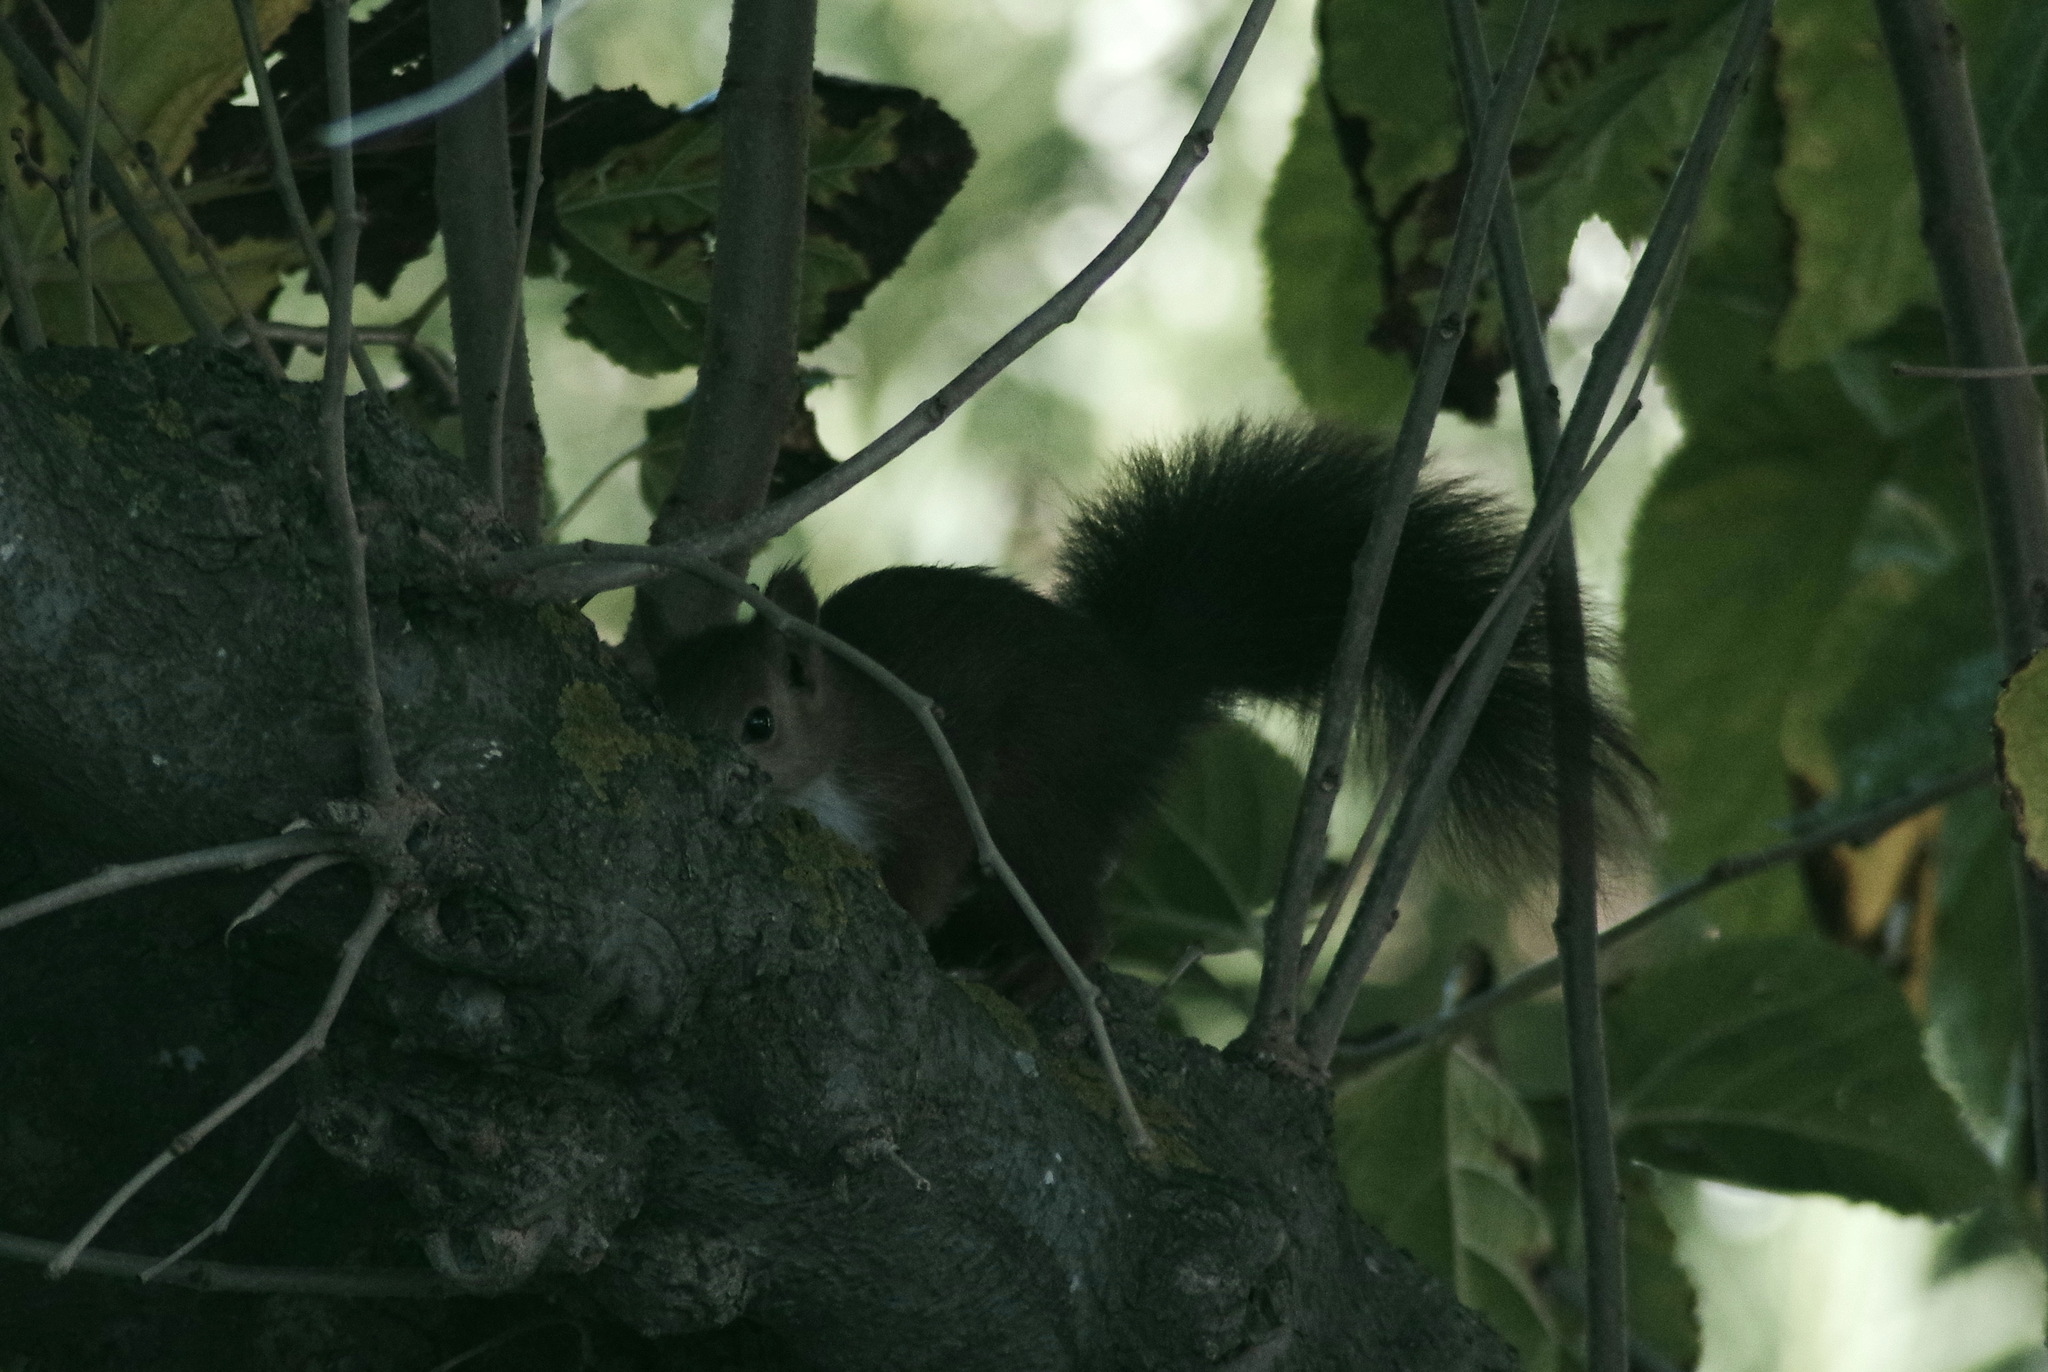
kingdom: Animalia
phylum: Chordata
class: Mammalia
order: Rodentia
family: Sciuridae
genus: Sciurus
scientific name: Sciurus vulgaris
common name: Eurasian red squirrel
